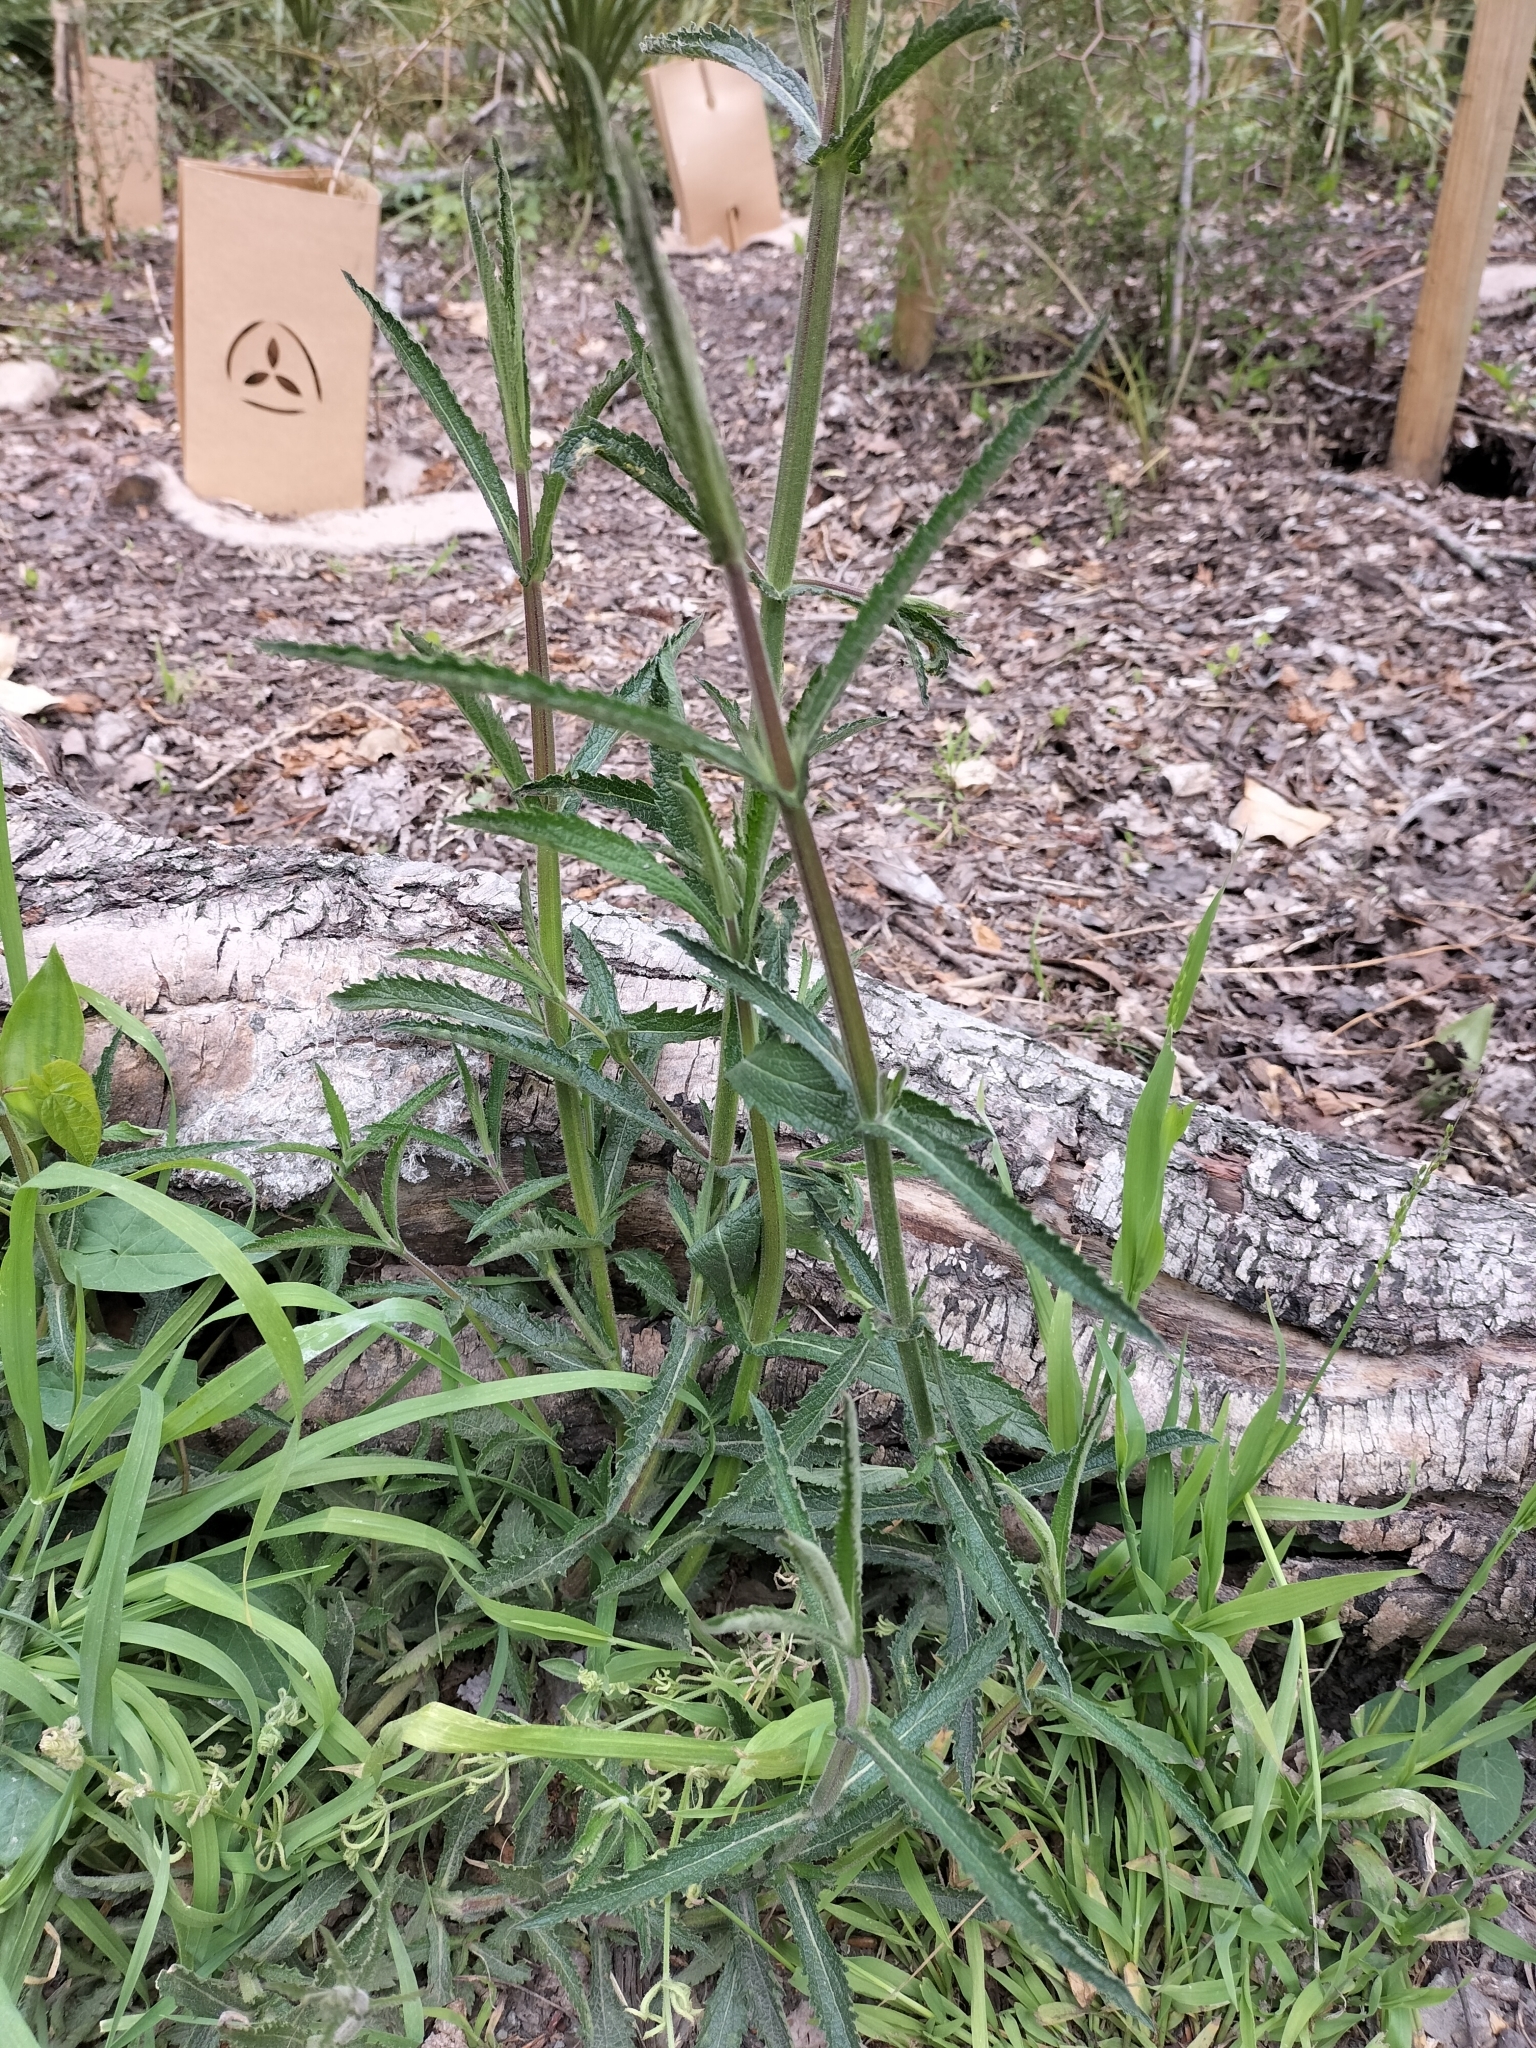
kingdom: Plantae
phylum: Tracheophyta
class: Magnoliopsida
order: Lamiales
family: Verbenaceae
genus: Verbena
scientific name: Verbena bonariensis
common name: Purpletop vervain
